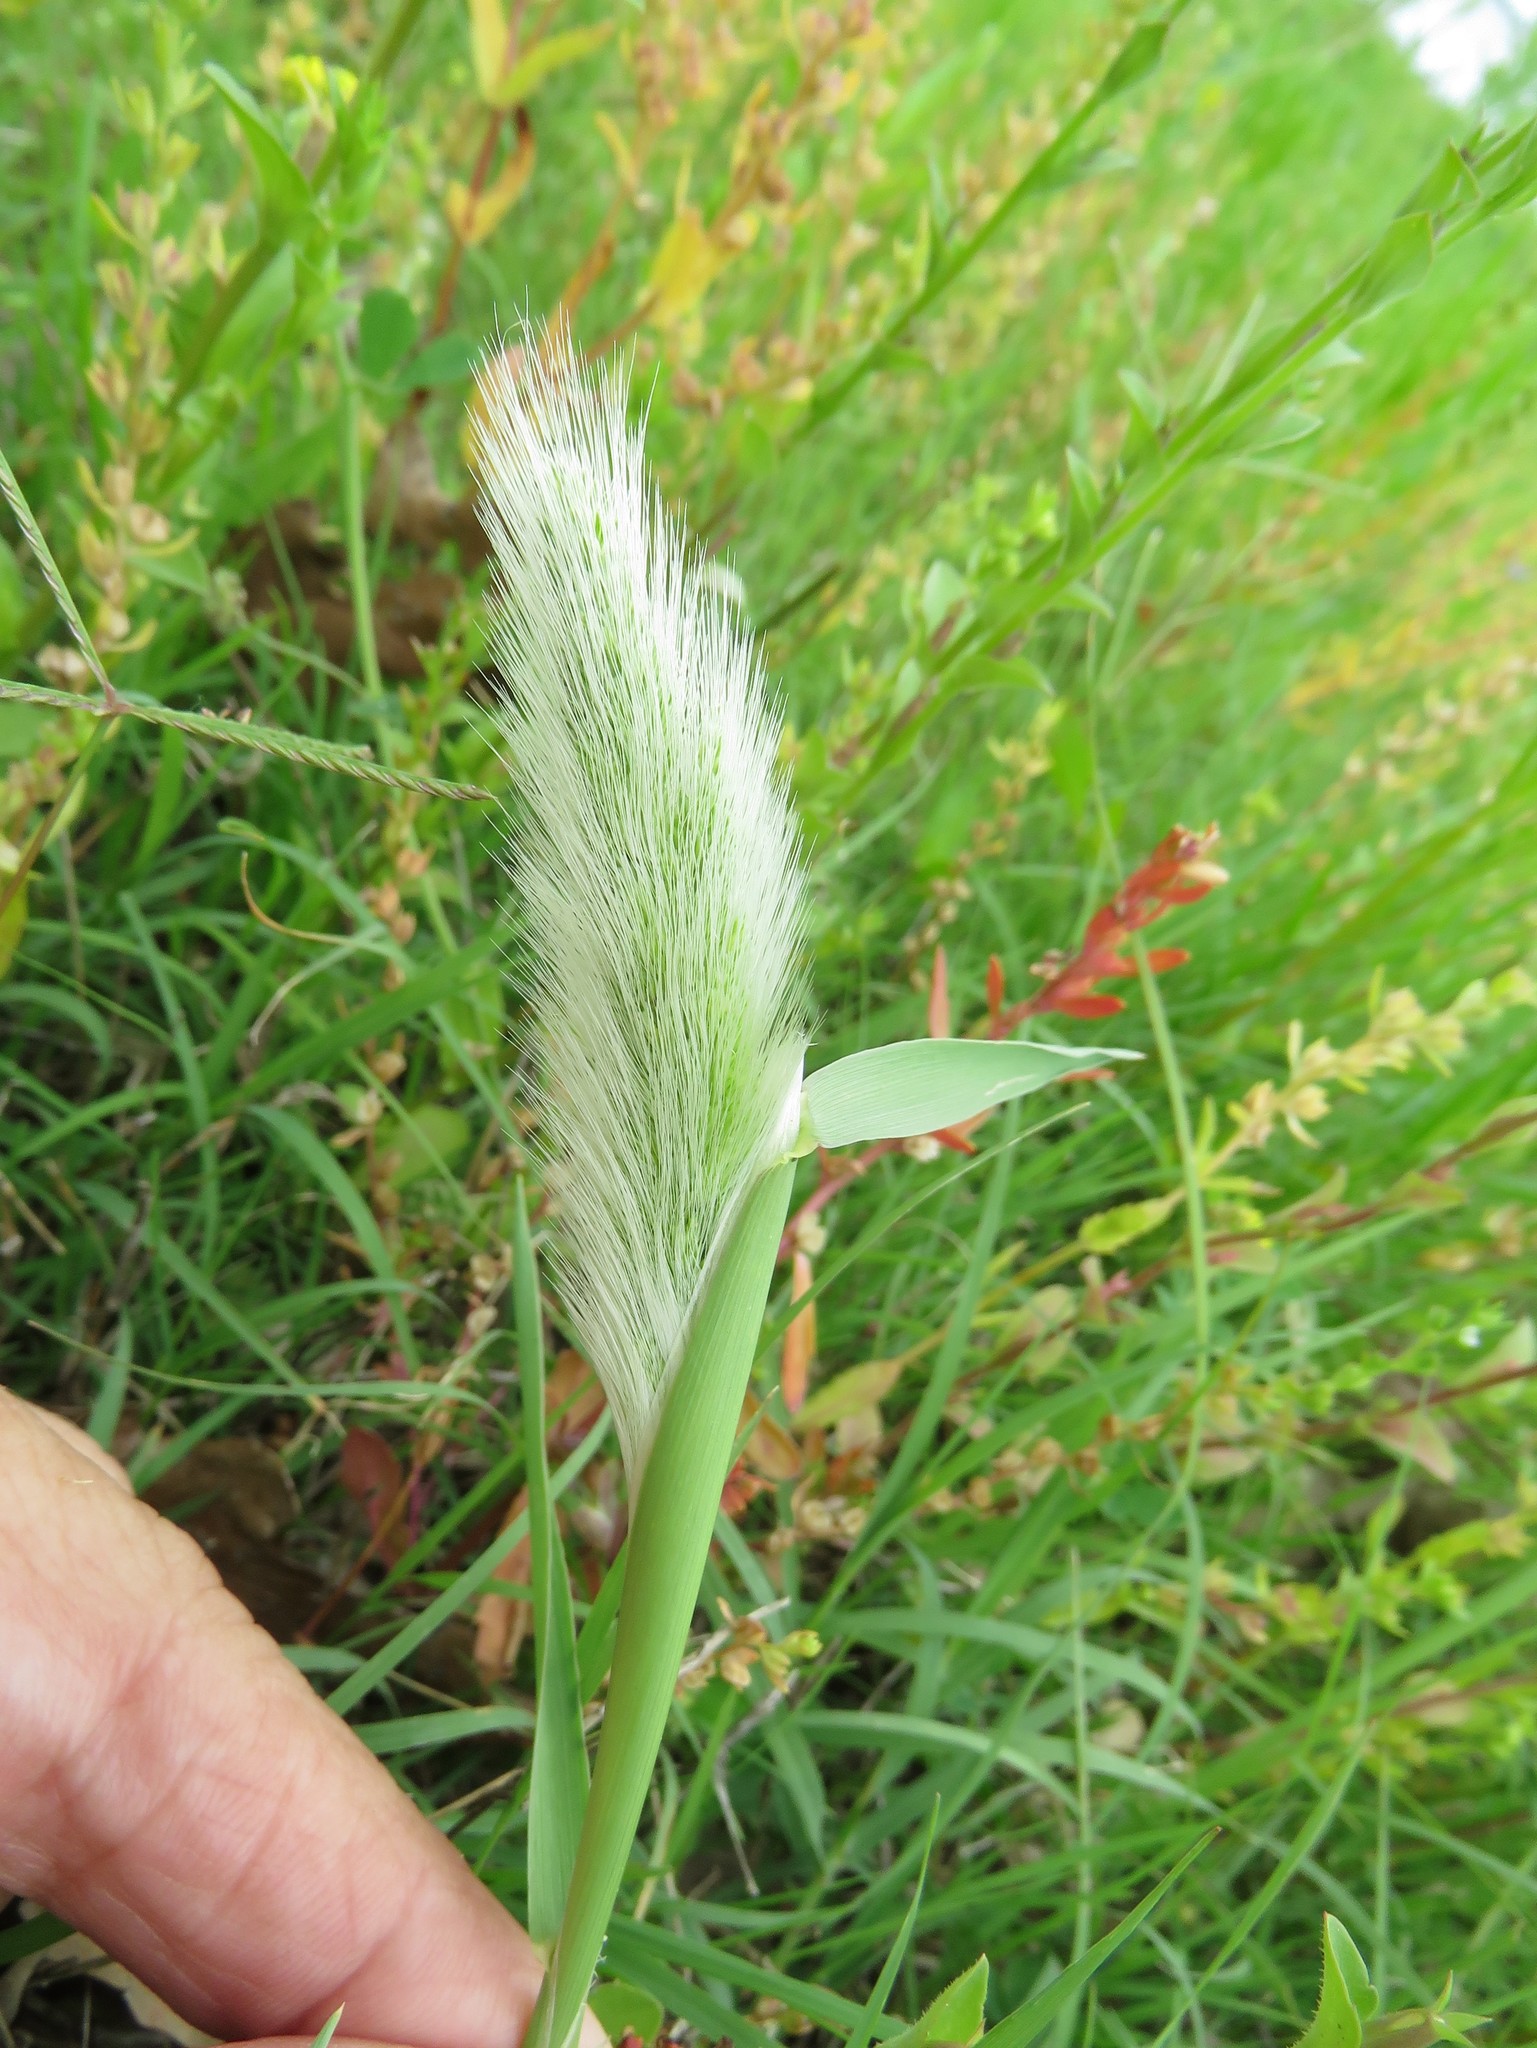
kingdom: Plantae
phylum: Tracheophyta
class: Liliopsida
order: Poales
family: Poaceae
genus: Polypogon
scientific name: Polypogon monspeliensis
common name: Annual rabbitsfoot grass
